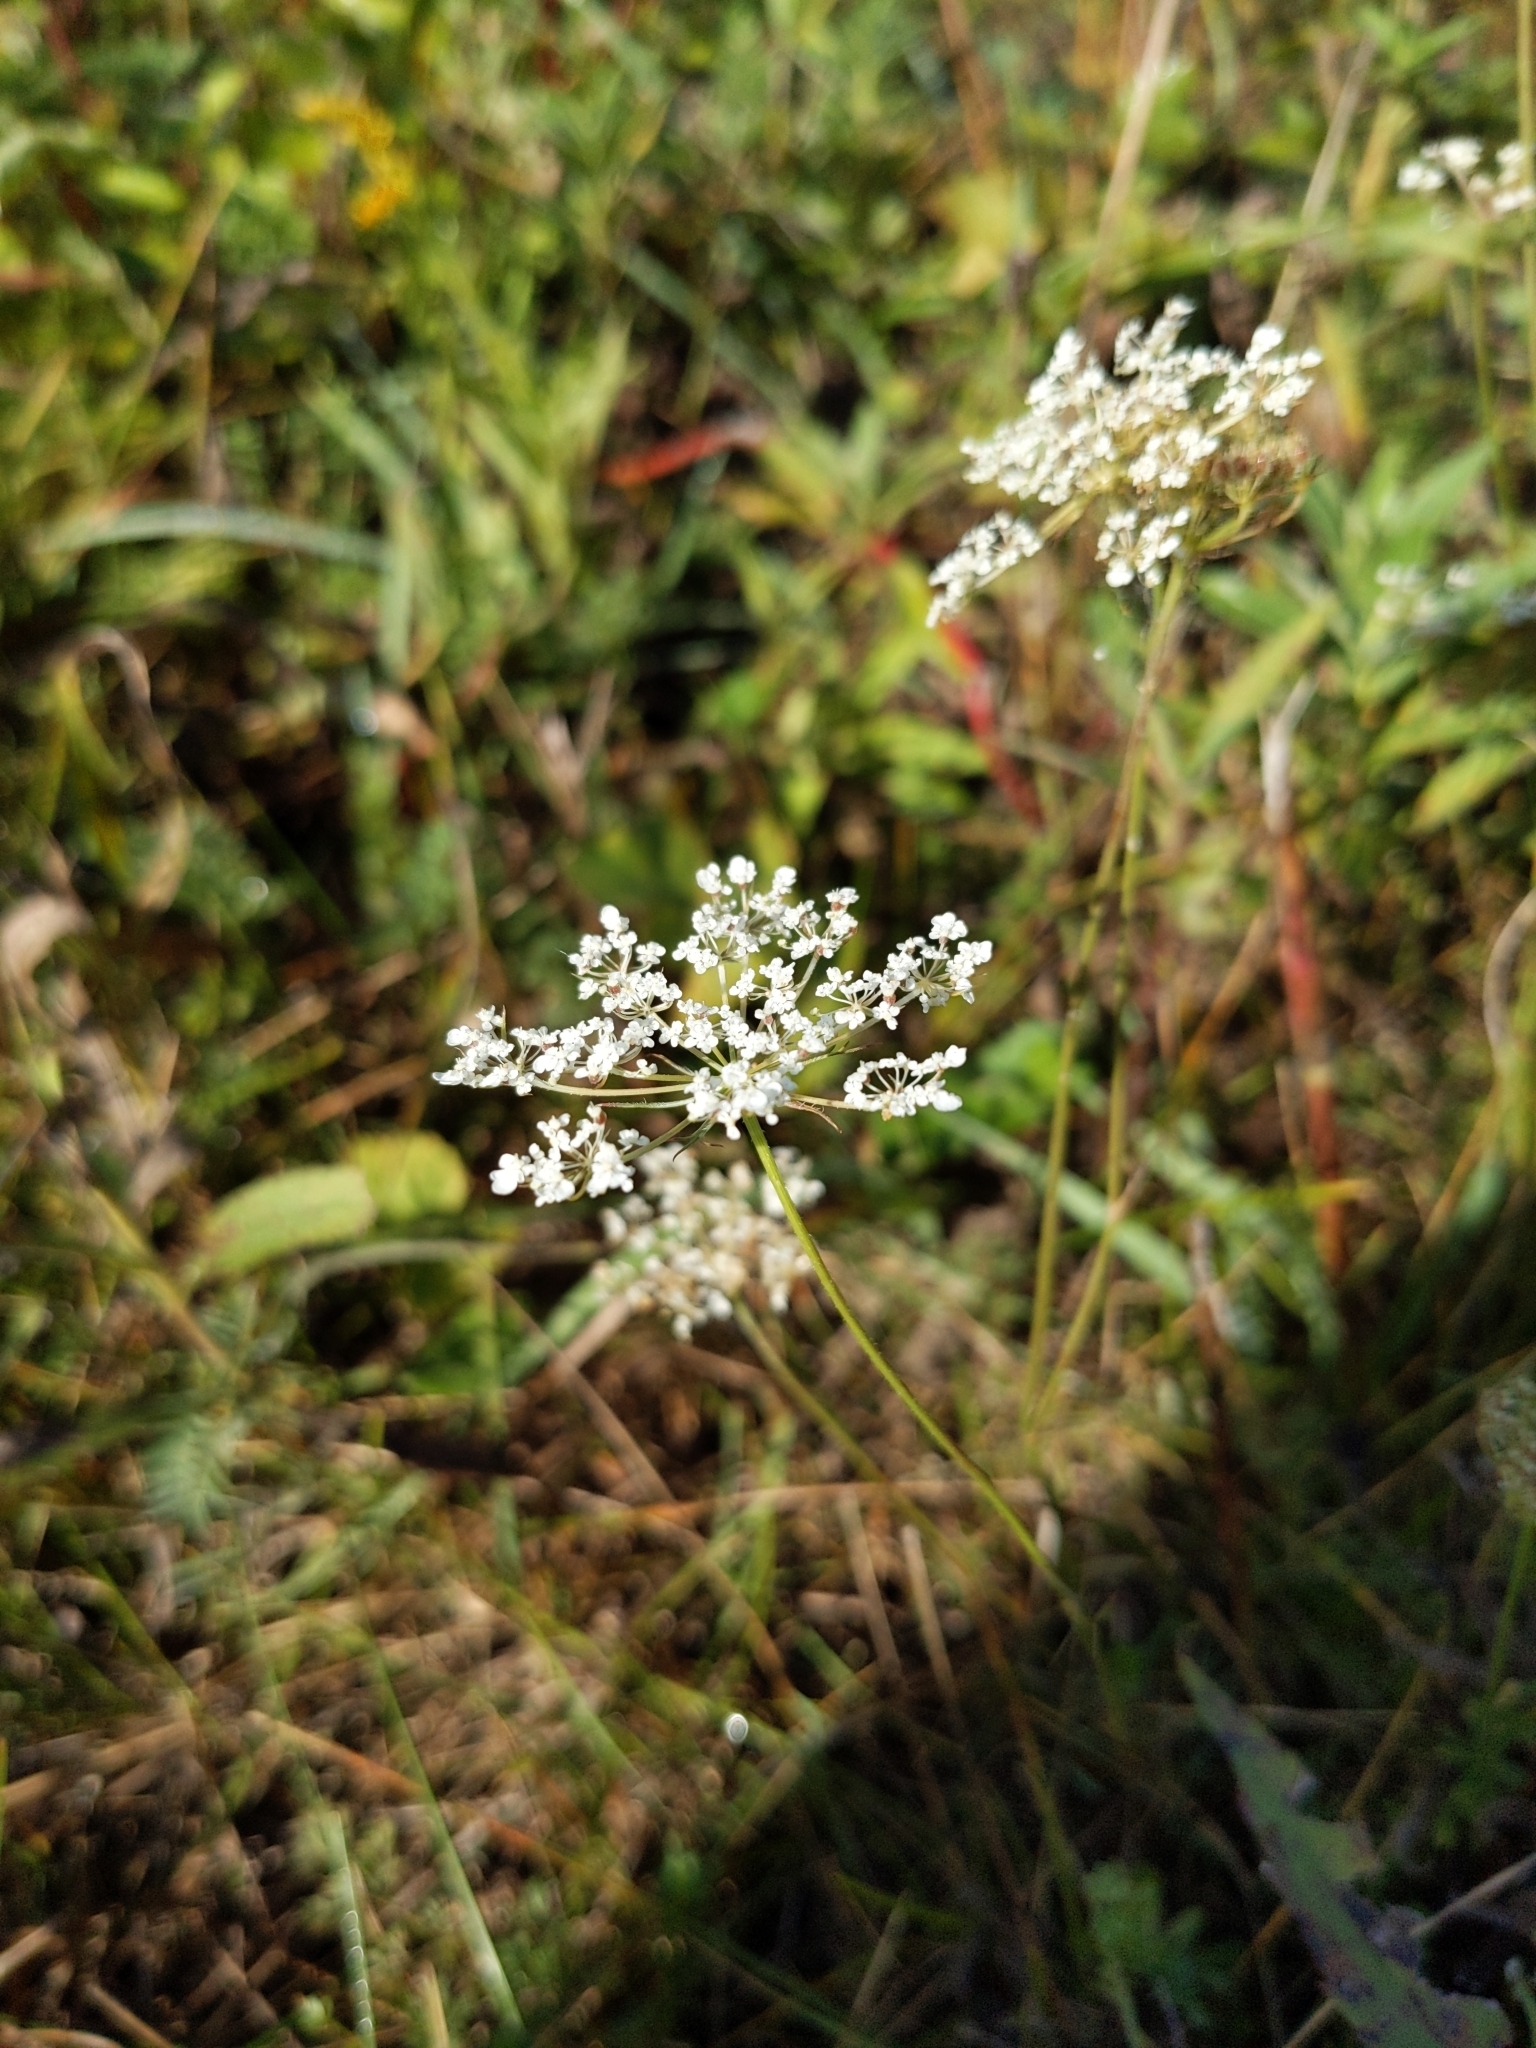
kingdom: Plantae
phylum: Tracheophyta
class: Magnoliopsida
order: Apiales
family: Apiaceae
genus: Daucus
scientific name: Daucus carota
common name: Wild carrot
